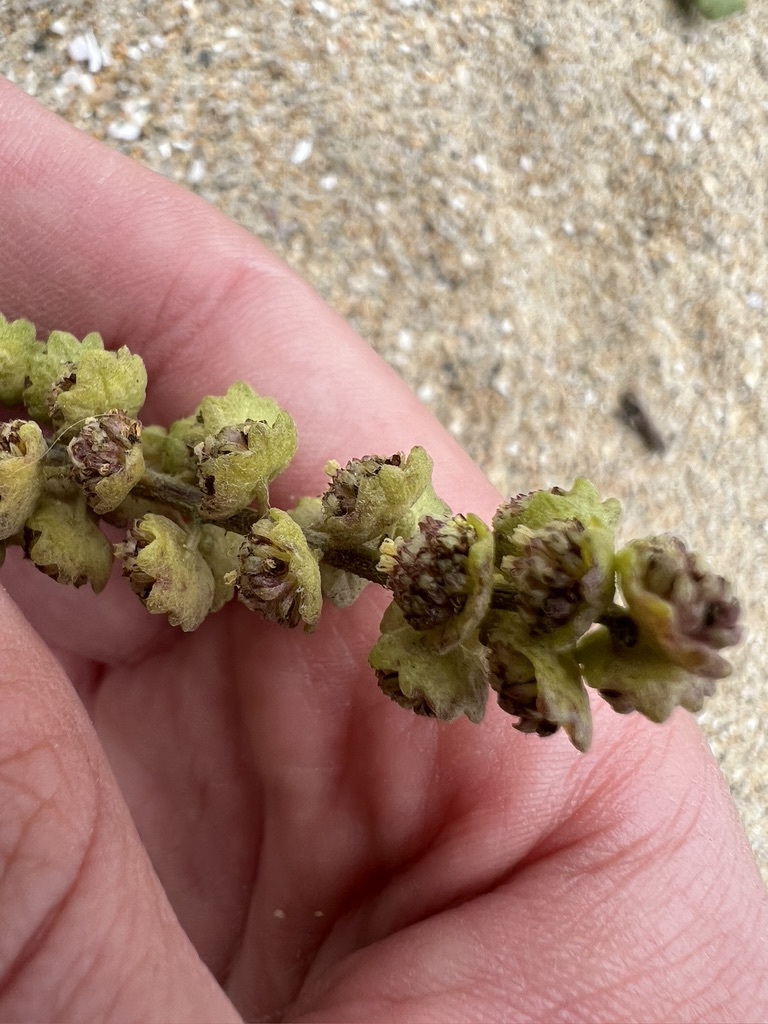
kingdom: Plantae
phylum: Tracheophyta
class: Magnoliopsida
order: Asterales
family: Asteraceae
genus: Ambrosia
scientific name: Ambrosia chamissonis
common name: Beachbur
